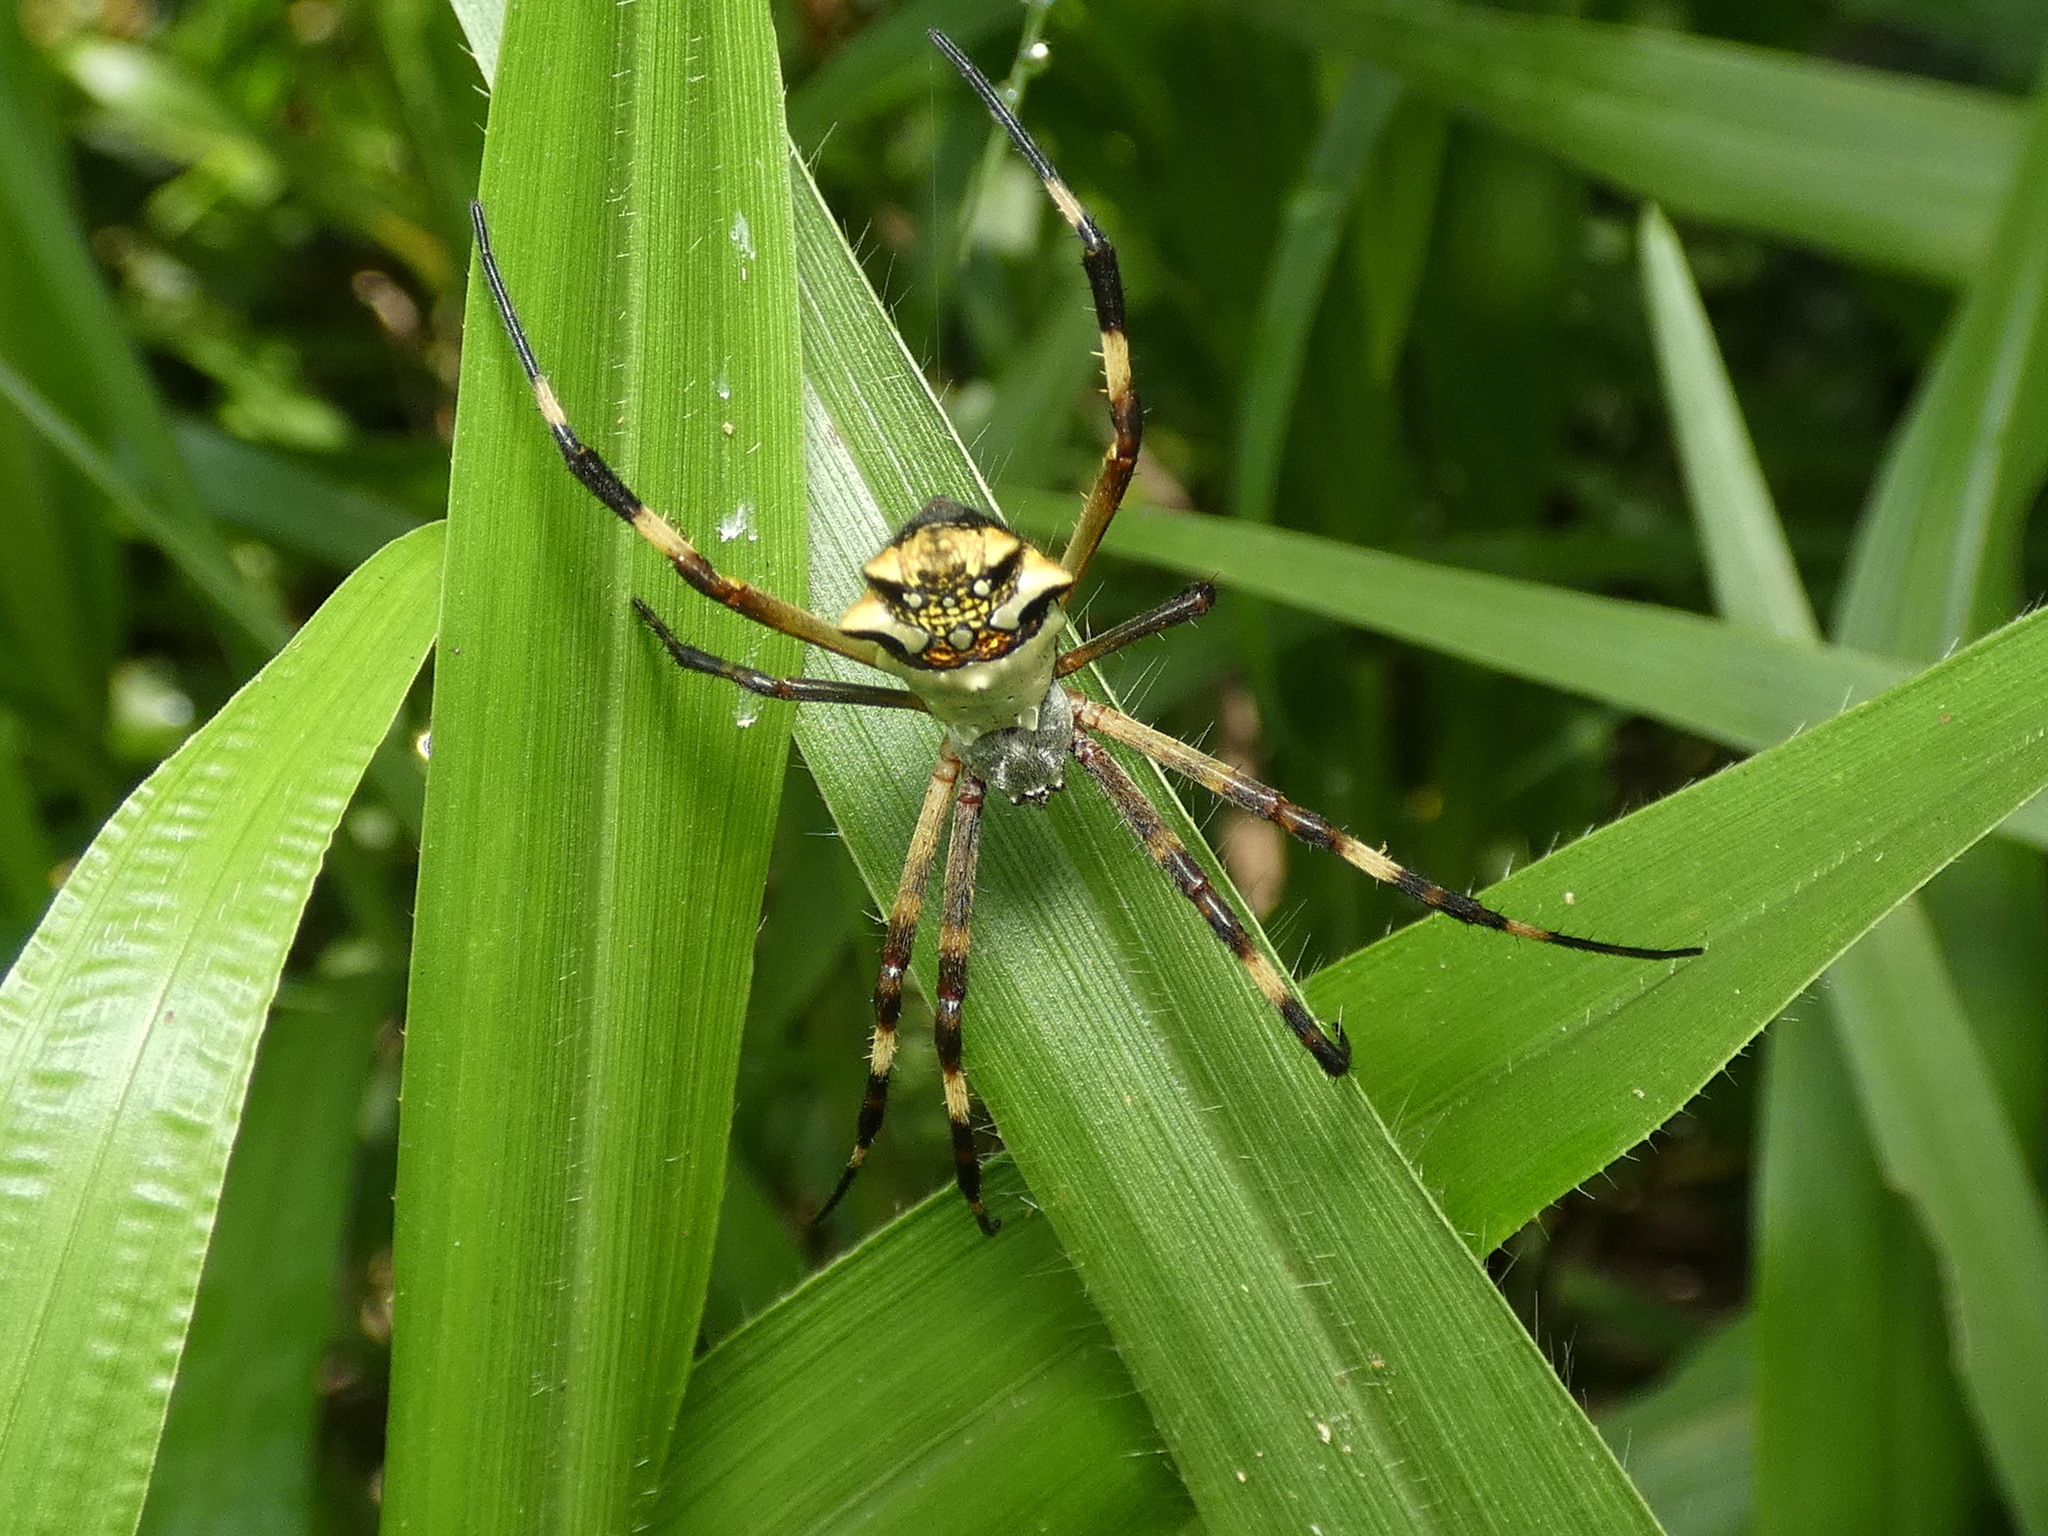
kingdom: Animalia
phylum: Arthropoda
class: Arachnida
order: Araneae
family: Araneidae
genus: Argiope
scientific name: Argiope argentata
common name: Orb weavers
